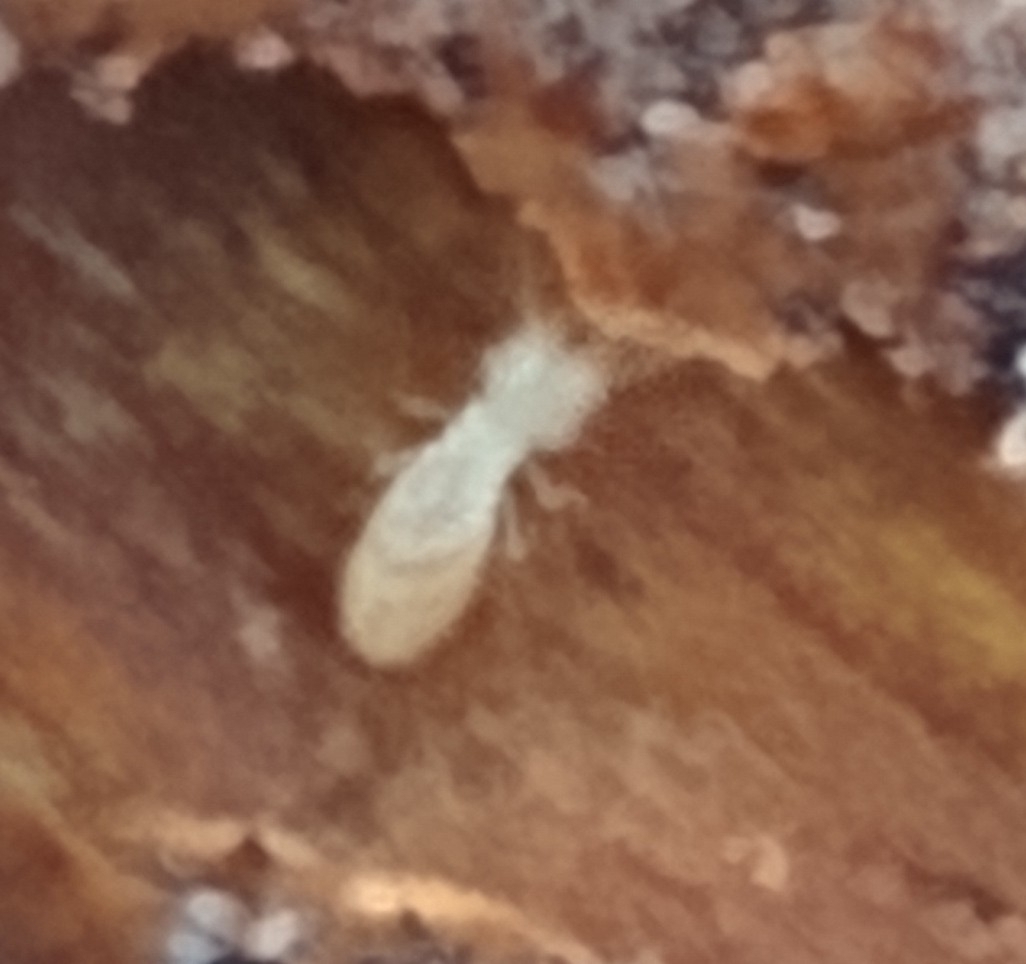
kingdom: Animalia
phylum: Arthropoda
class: Insecta
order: Blattodea
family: Rhinotermitidae
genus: Reticulitermes
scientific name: Reticulitermes flavipes
